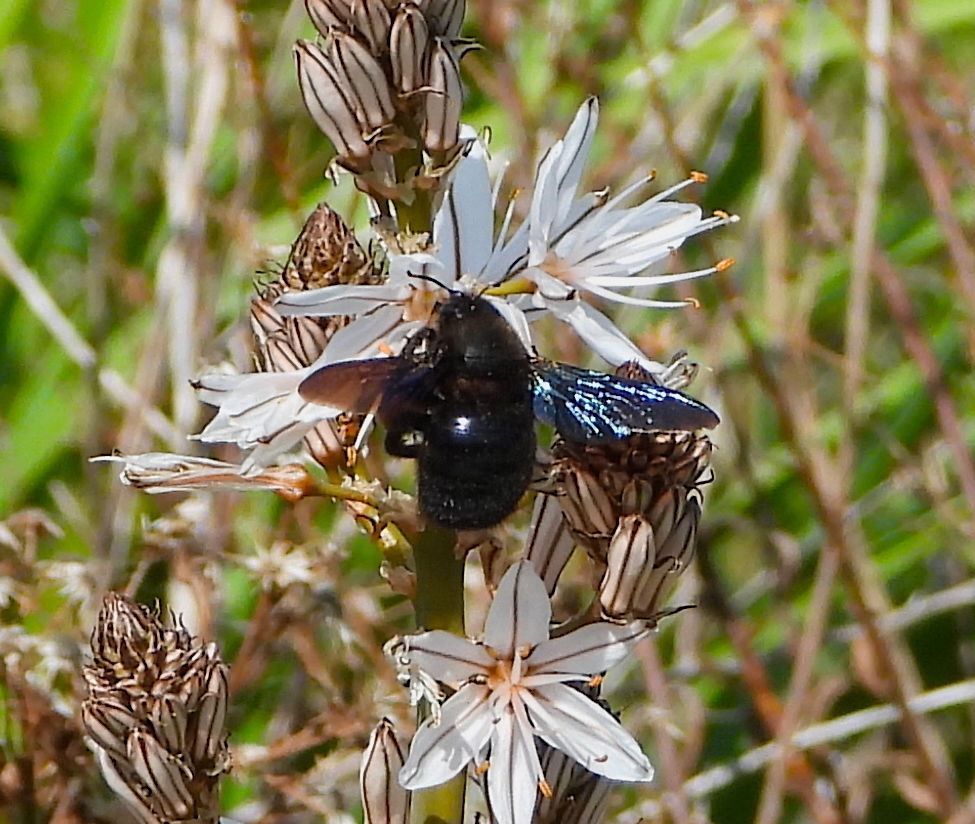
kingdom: Animalia
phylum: Arthropoda
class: Insecta
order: Hymenoptera
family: Apidae
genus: Xylocopa
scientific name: Xylocopa violacea
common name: Violet carpenter bee
